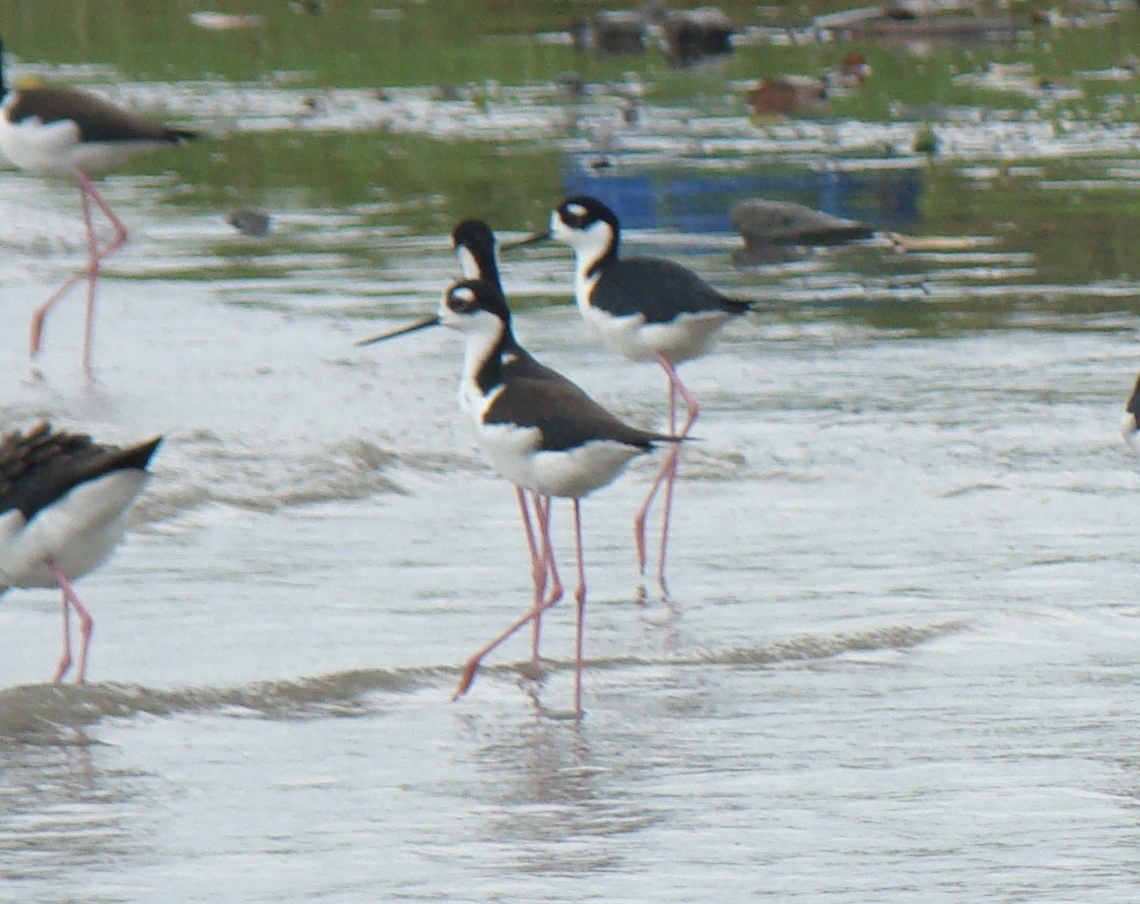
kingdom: Animalia
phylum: Chordata
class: Aves
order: Charadriiformes
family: Recurvirostridae
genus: Himantopus
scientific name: Himantopus mexicanus
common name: Black-necked stilt
